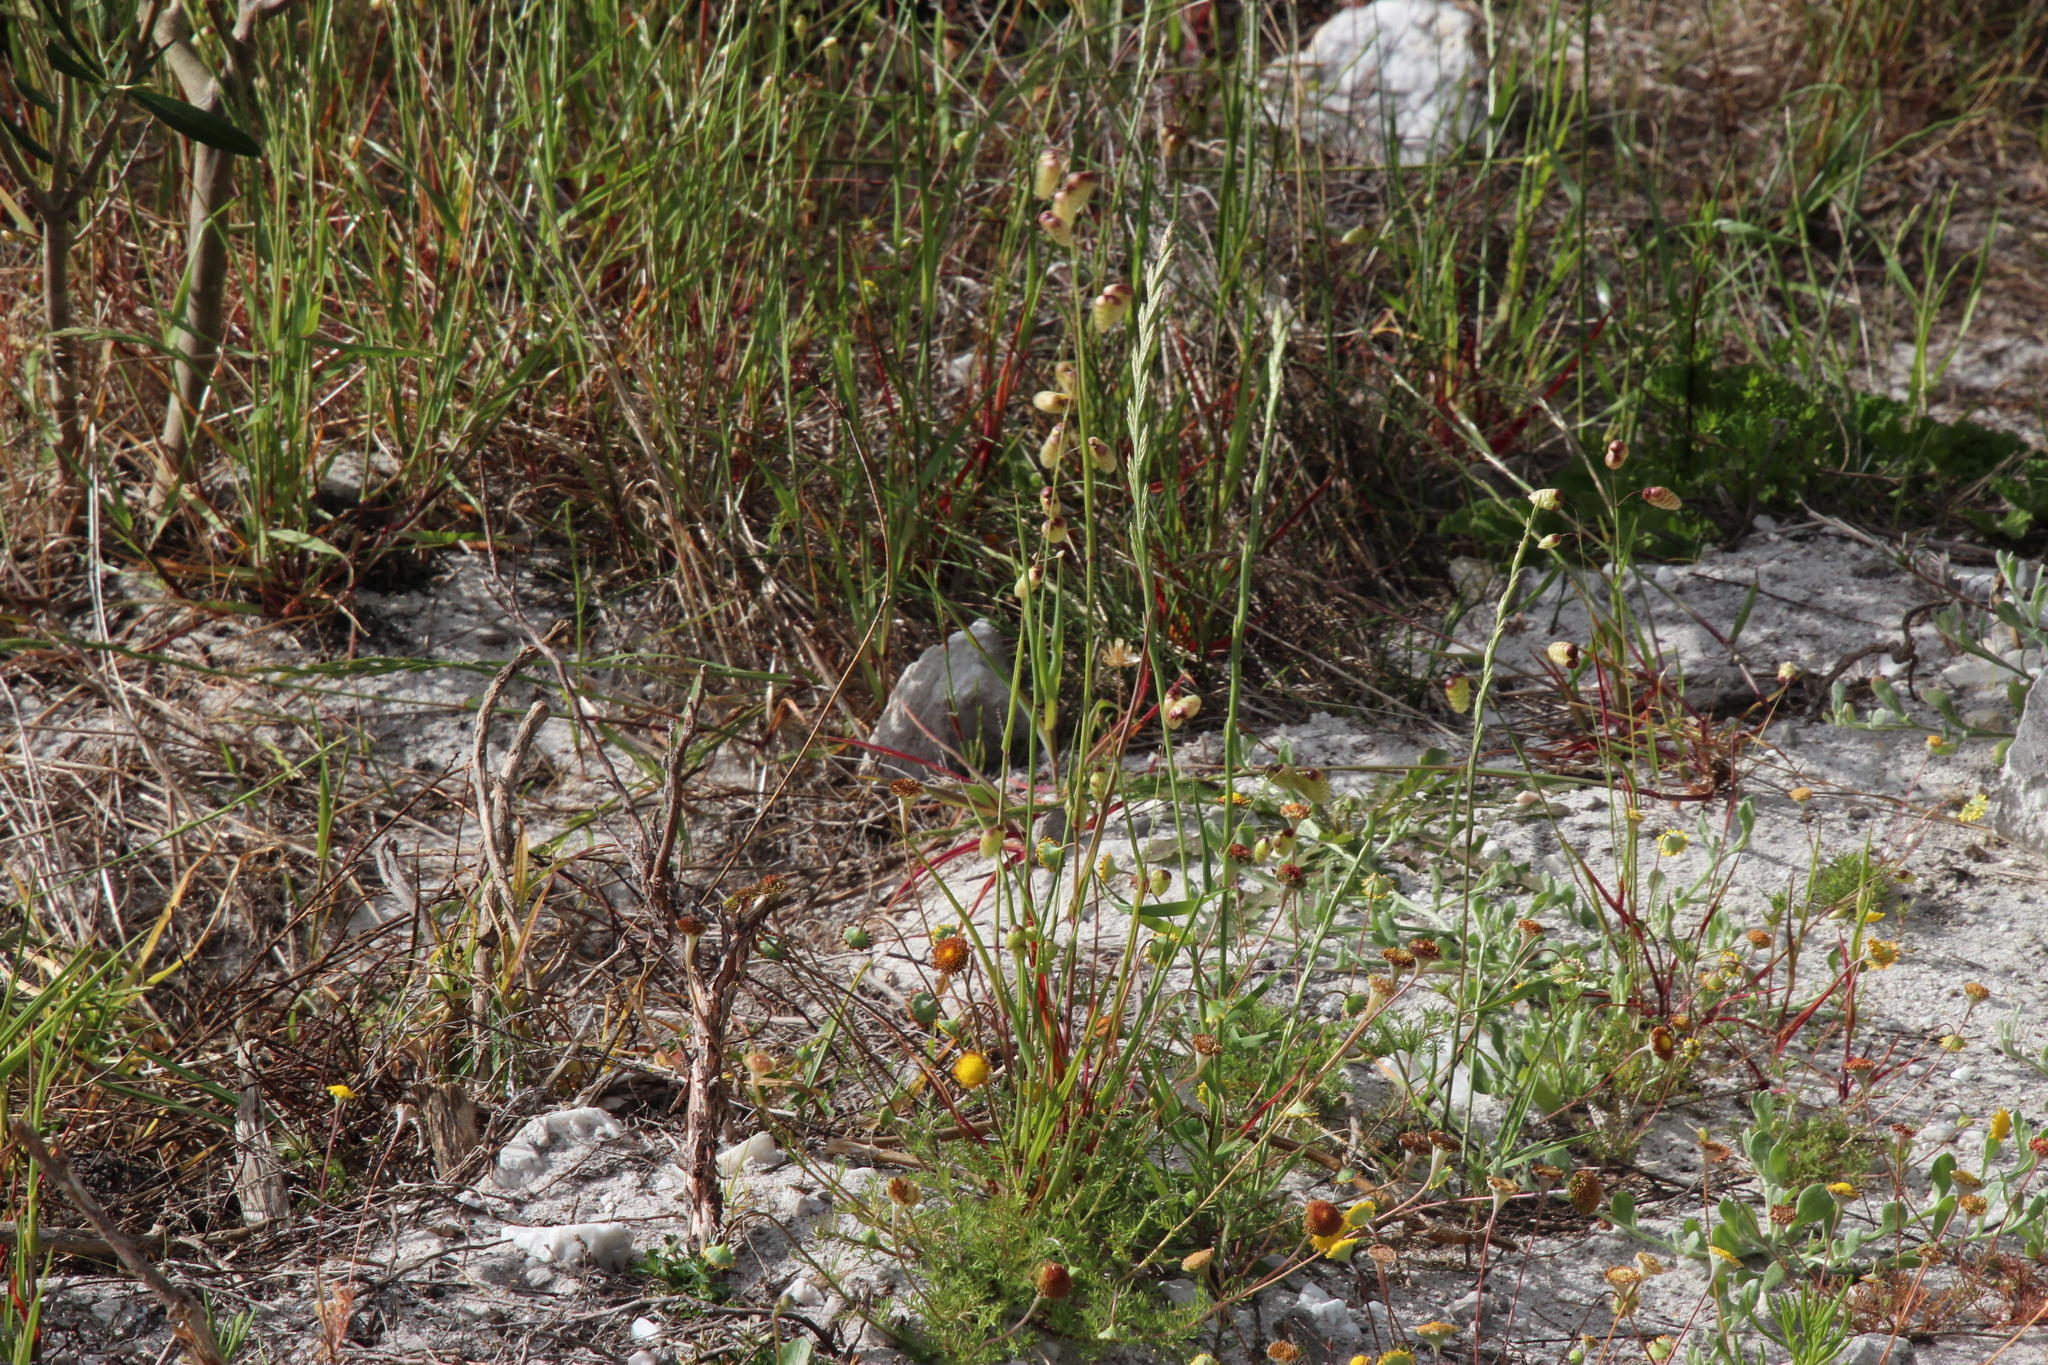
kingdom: Plantae
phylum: Tracheophyta
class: Liliopsida
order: Poales
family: Poaceae
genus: Lolium
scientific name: Lolium multiflorum
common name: Annual ryegrass
